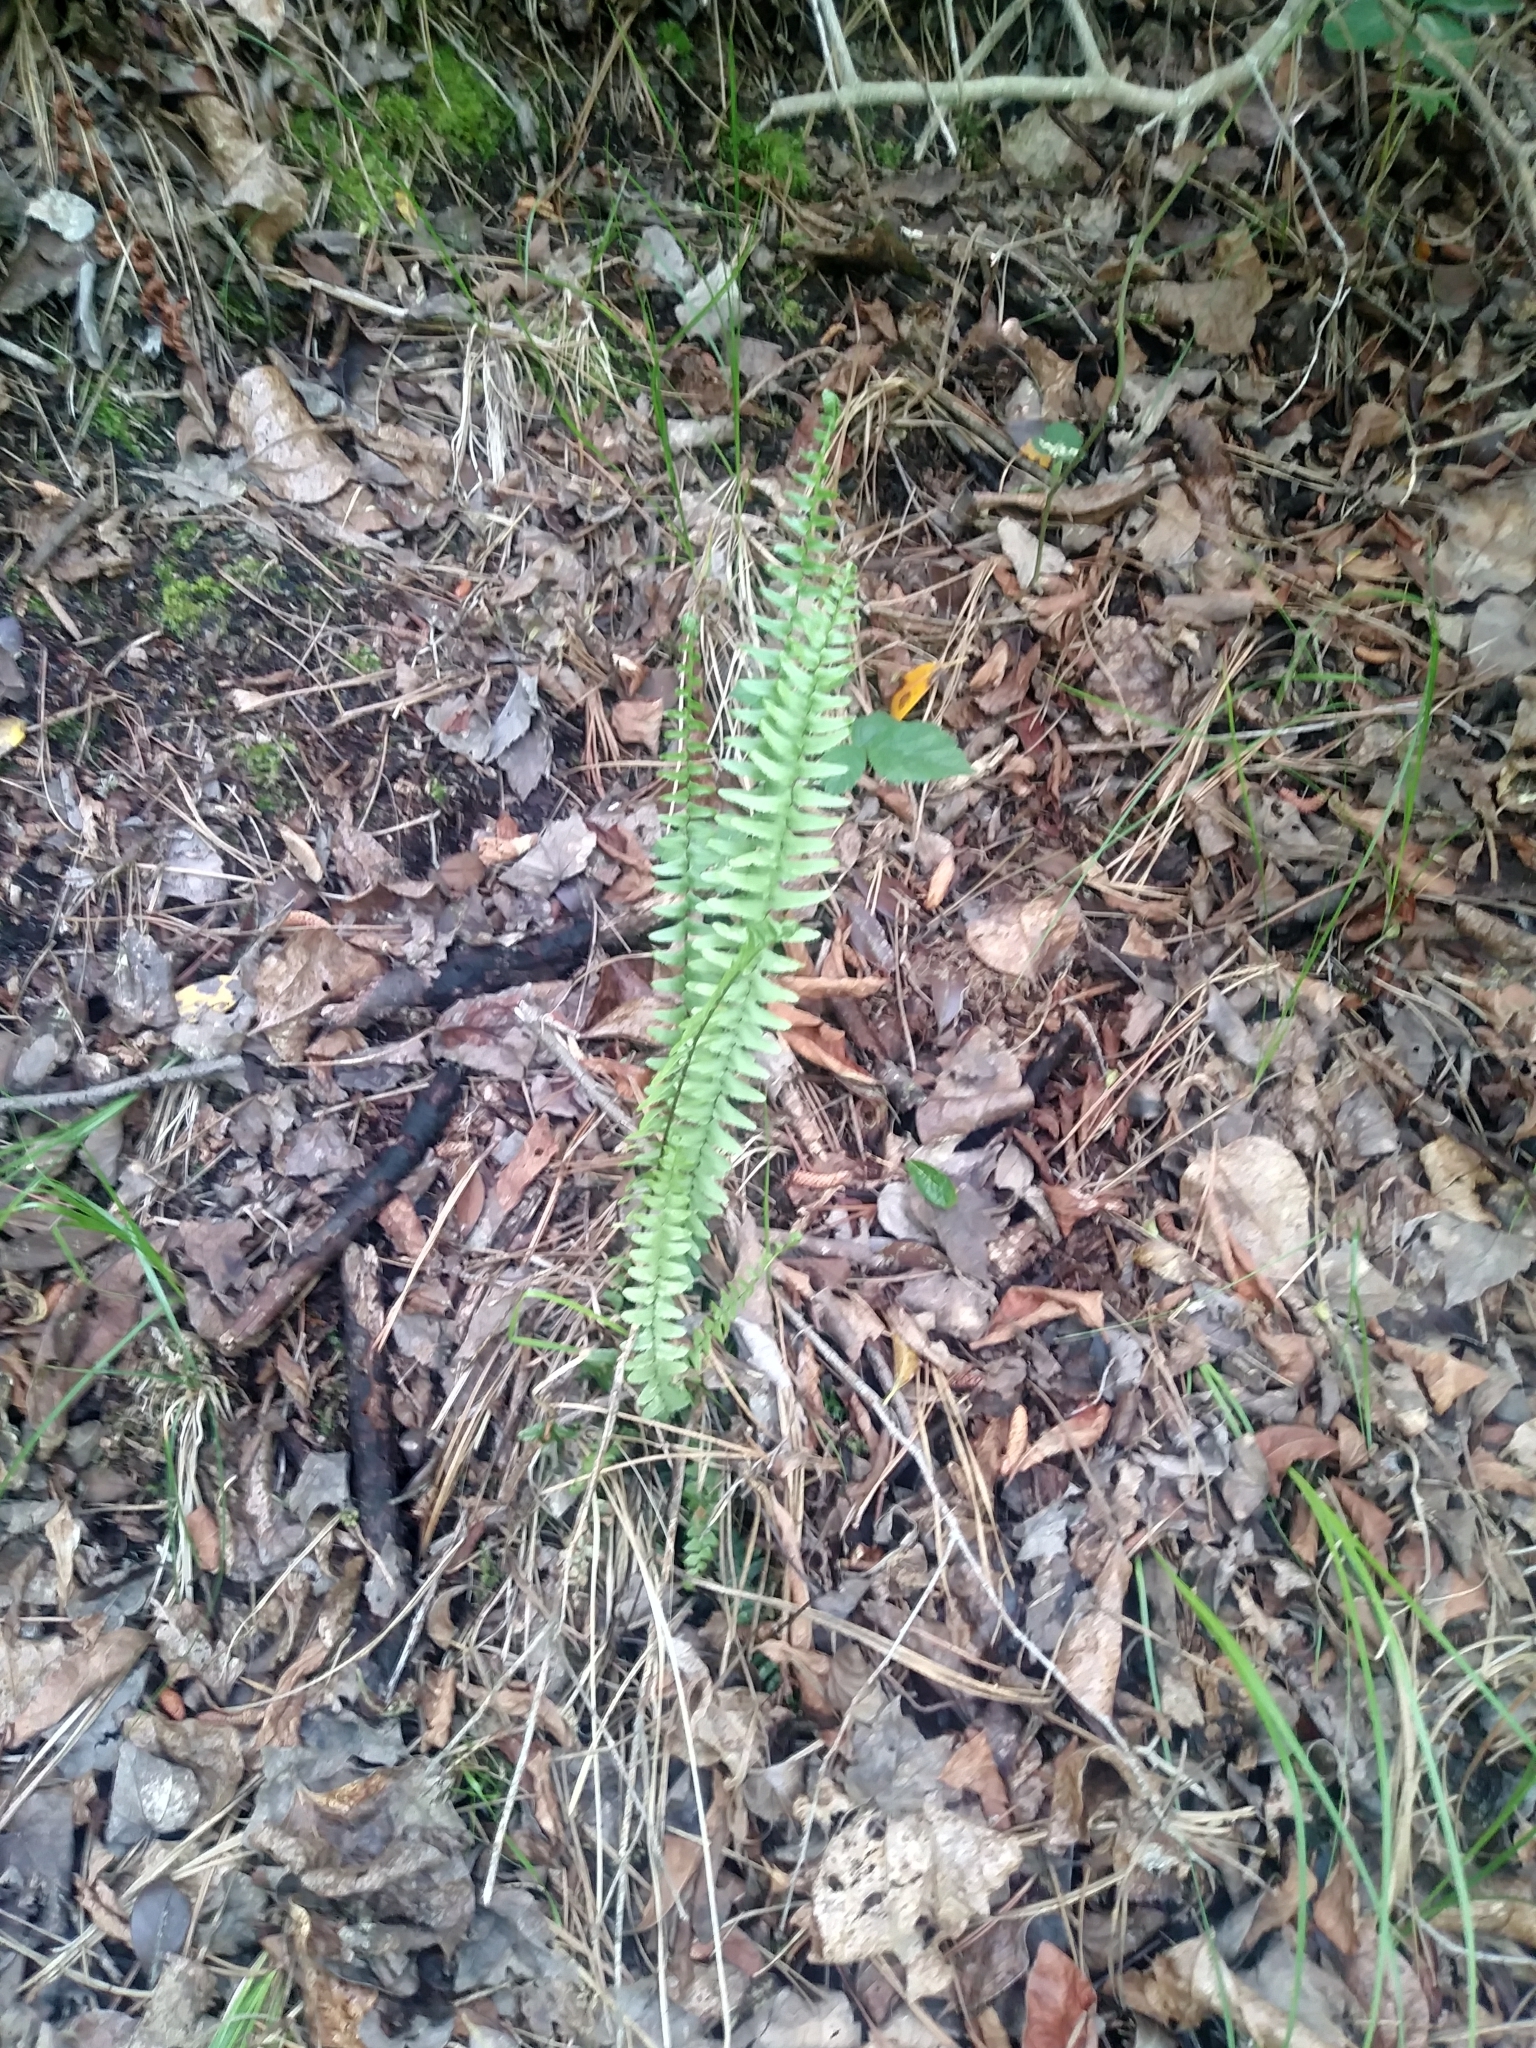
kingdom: Plantae
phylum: Tracheophyta
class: Polypodiopsida
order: Polypodiales
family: Aspleniaceae
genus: Asplenium
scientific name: Asplenium platyneuron
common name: Ebony spleenwort
